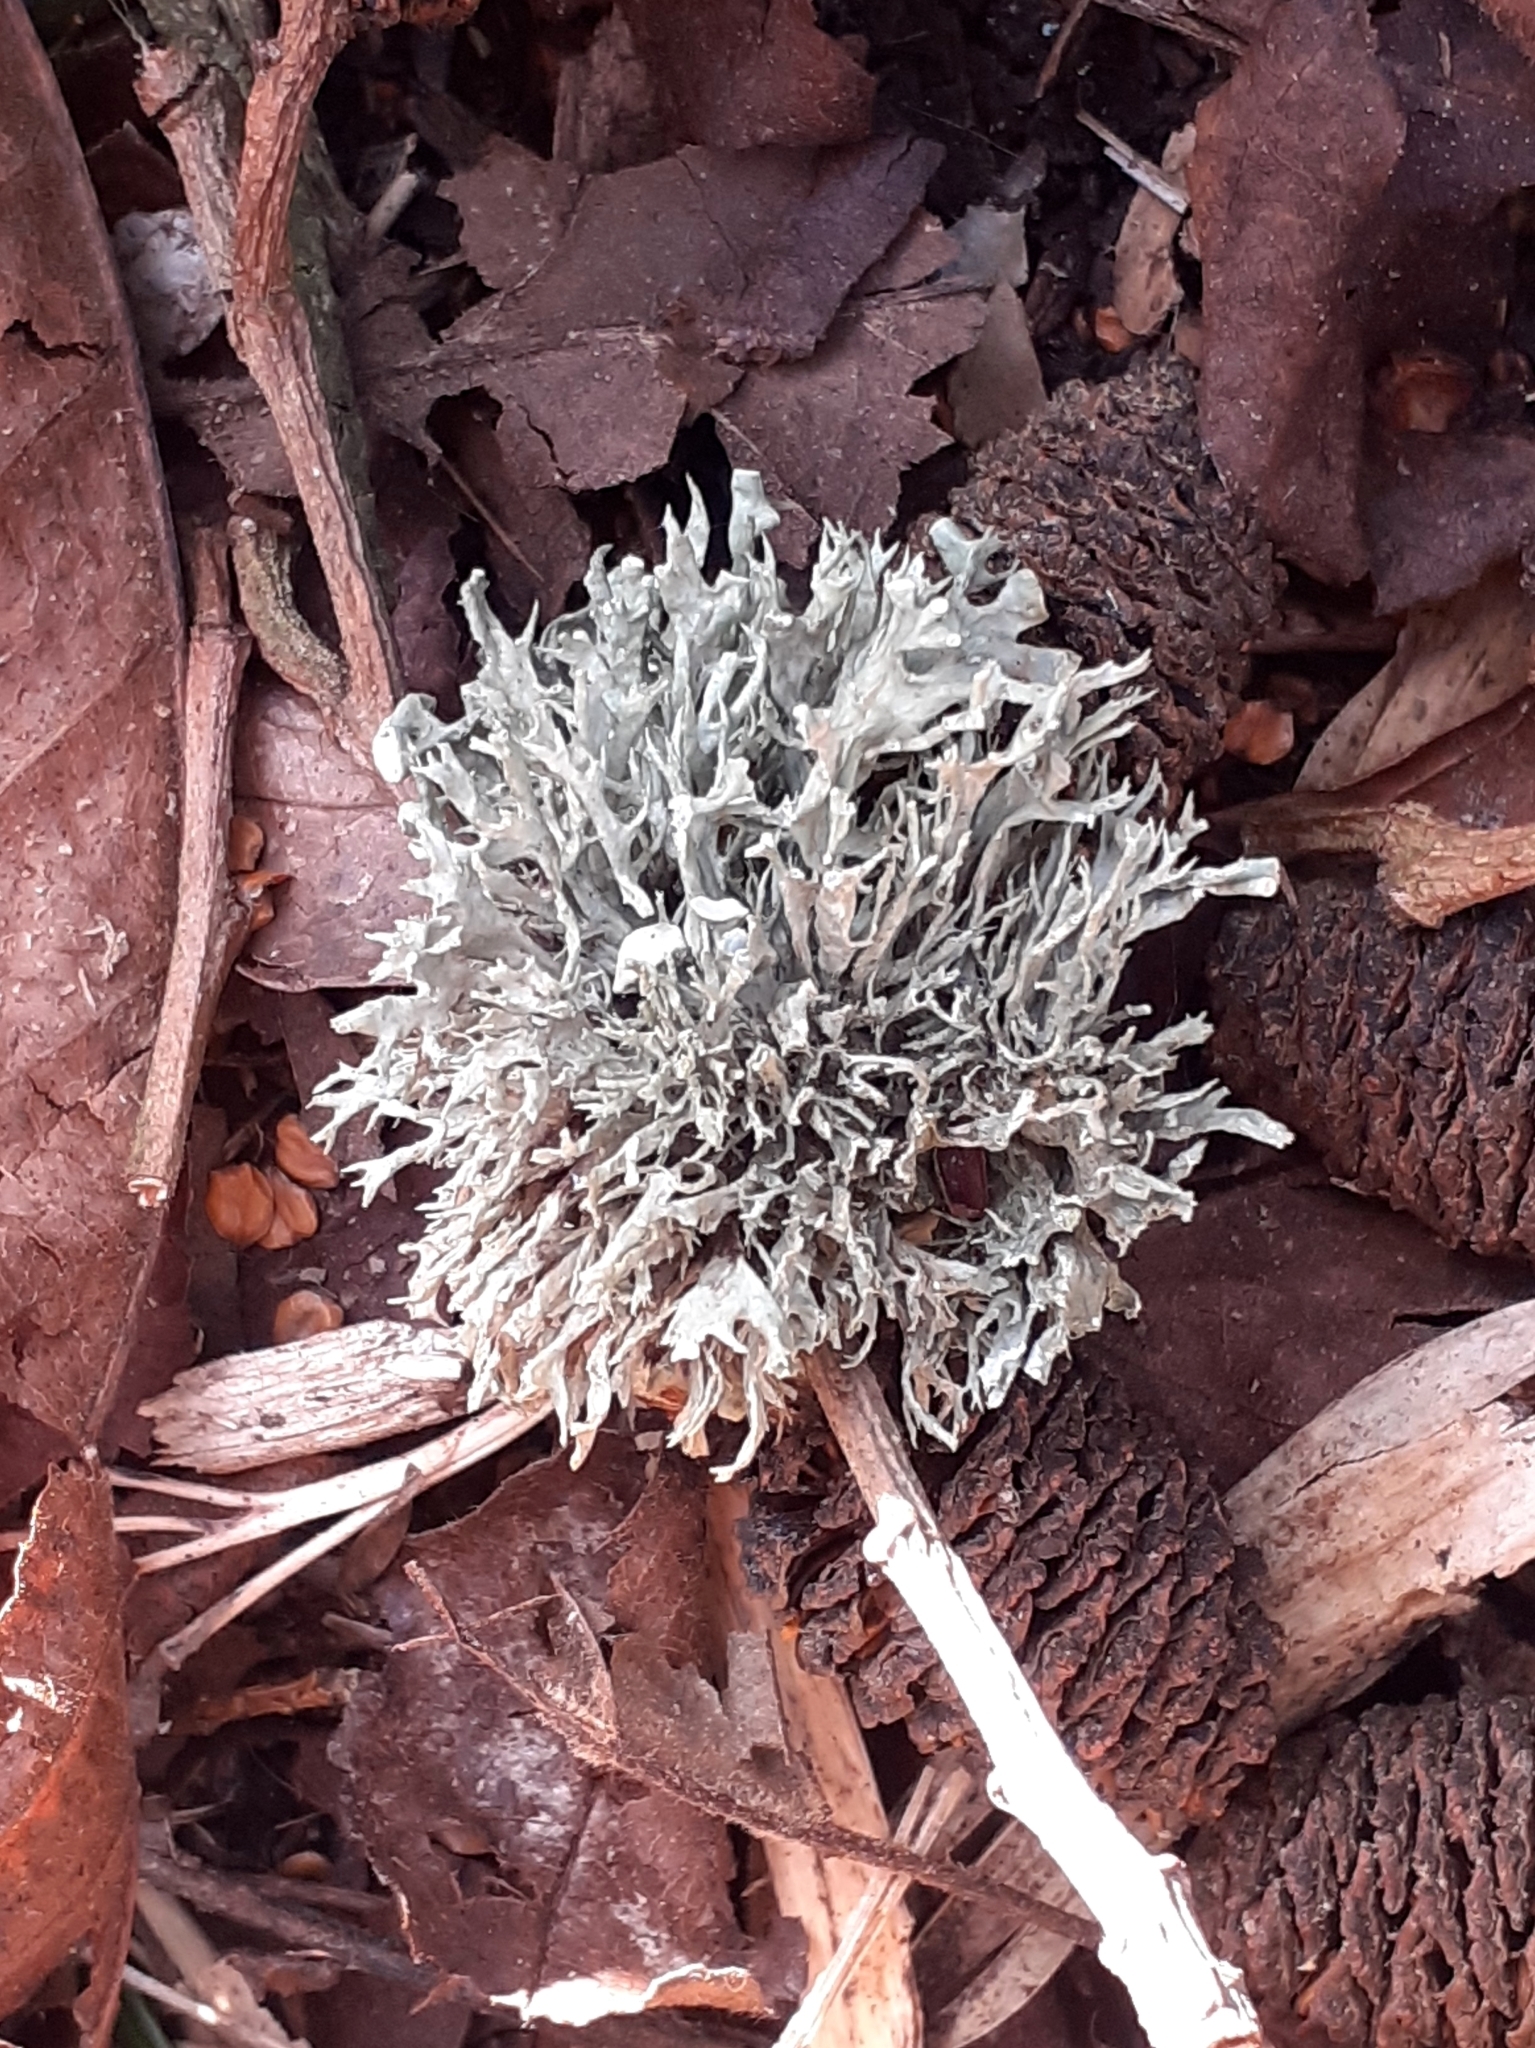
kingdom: Fungi
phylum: Ascomycota
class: Lecanoromycetes
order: Lecanorales
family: Ramalinaceae
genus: Ramalina
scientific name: Ramalina fastigiata
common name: Dotted ribbon lichen
